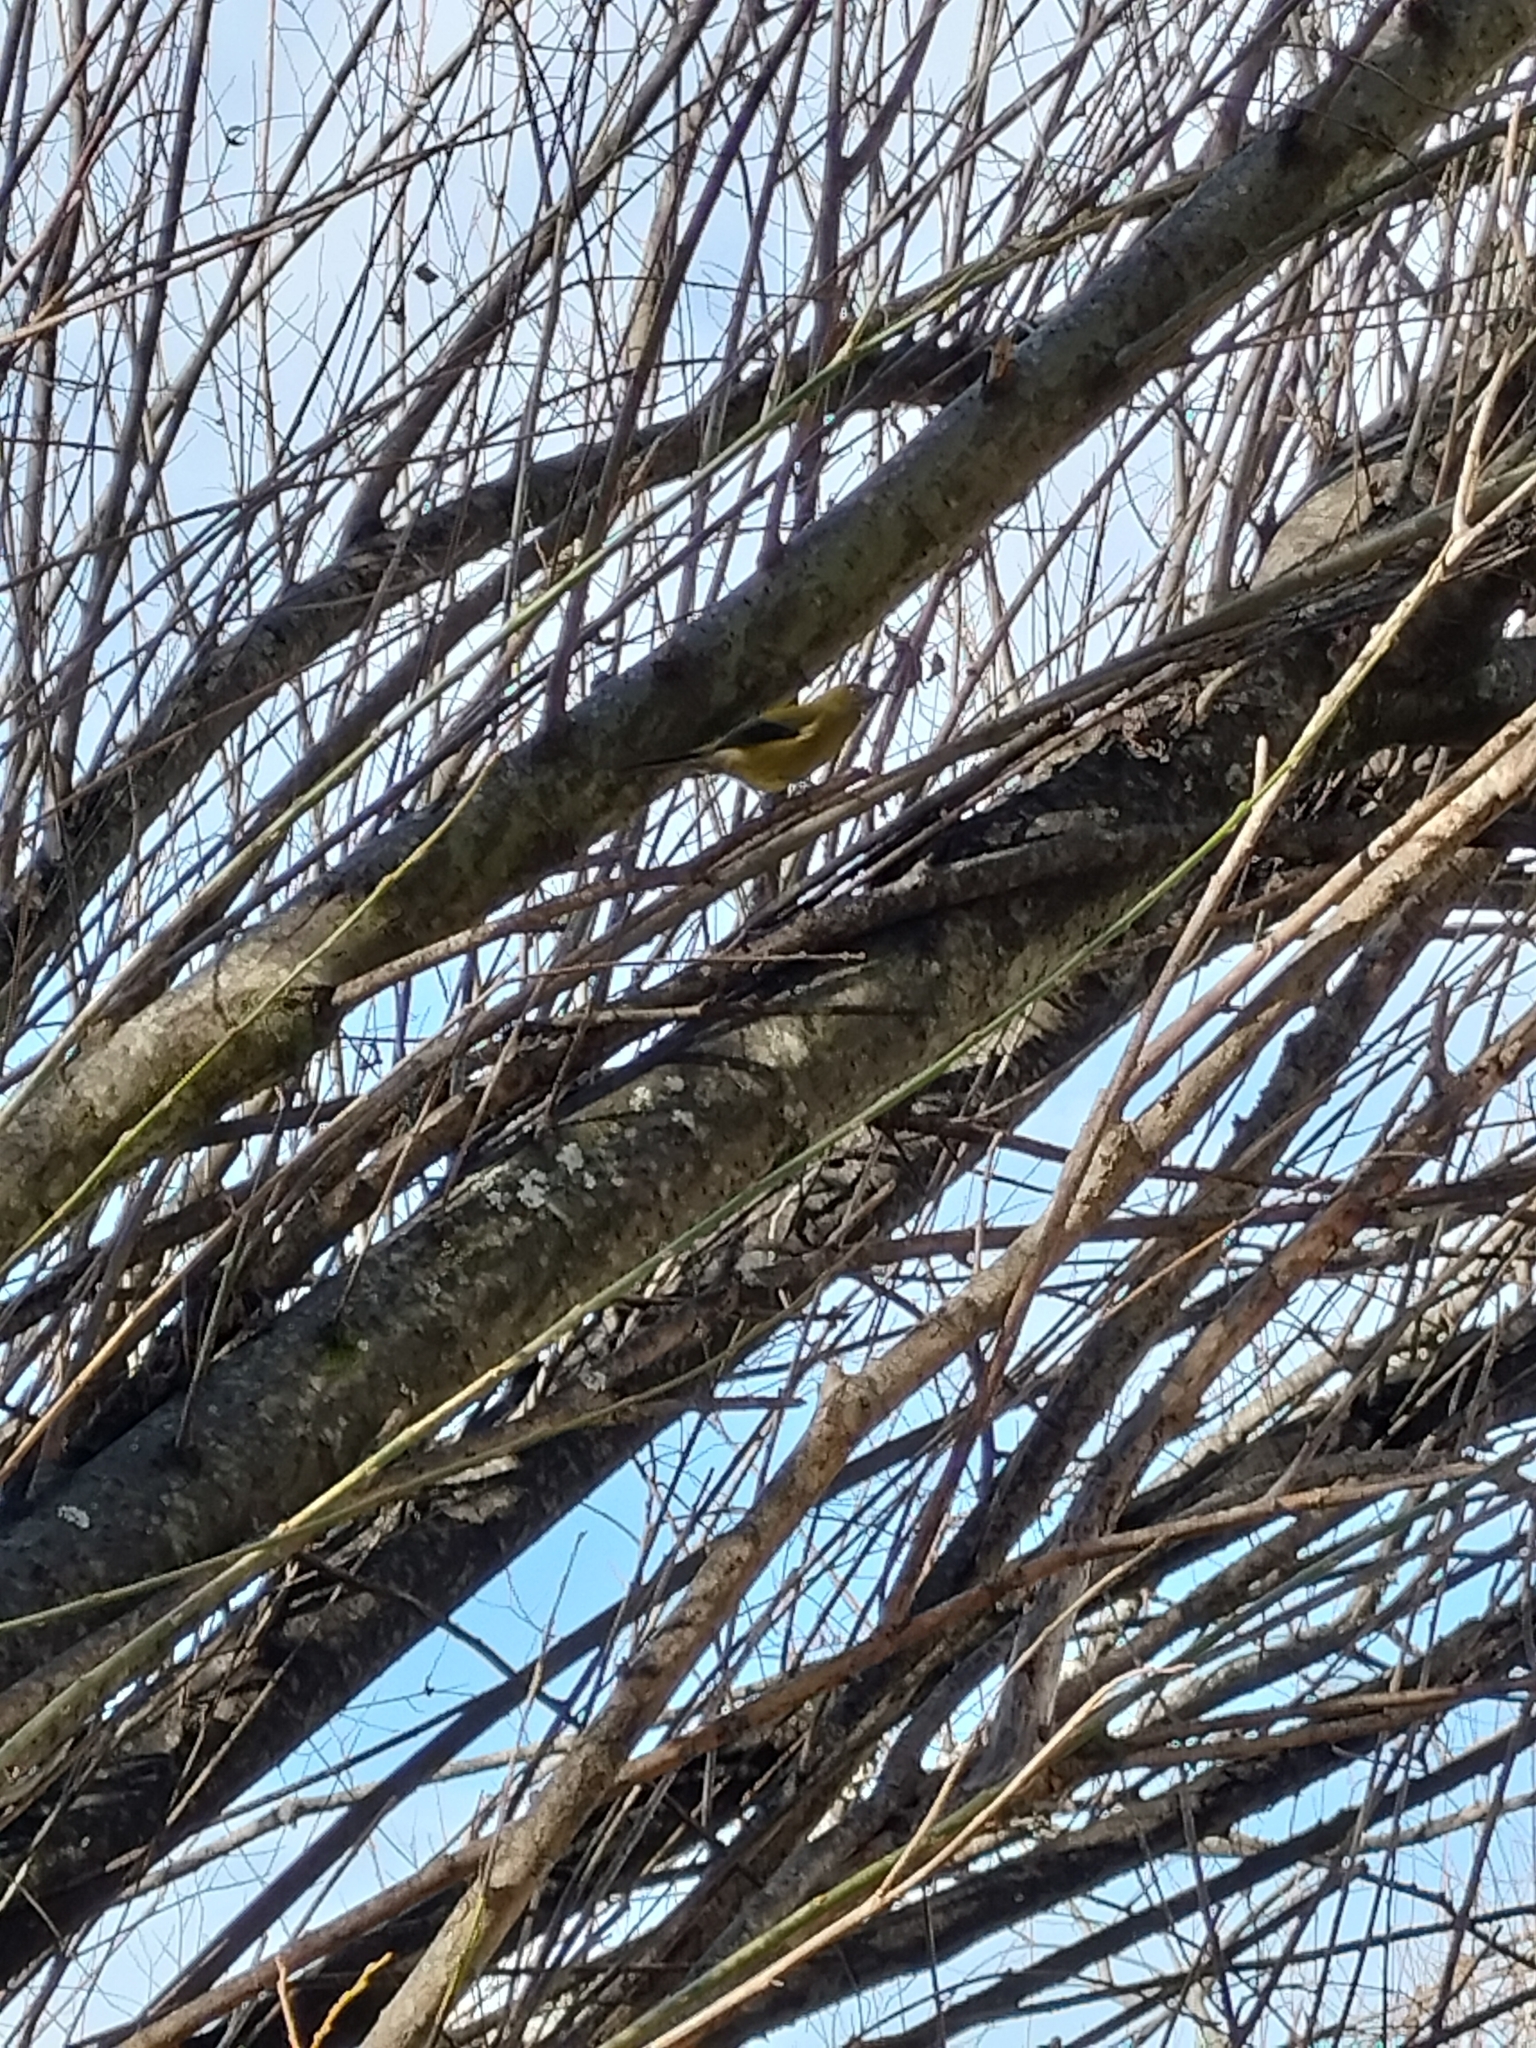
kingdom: Animalia
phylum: Chordata
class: Aves
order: Passeriformes
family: Meliphagidae
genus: Anthornis
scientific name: Anthornis melanura
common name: New zealand bellbird
